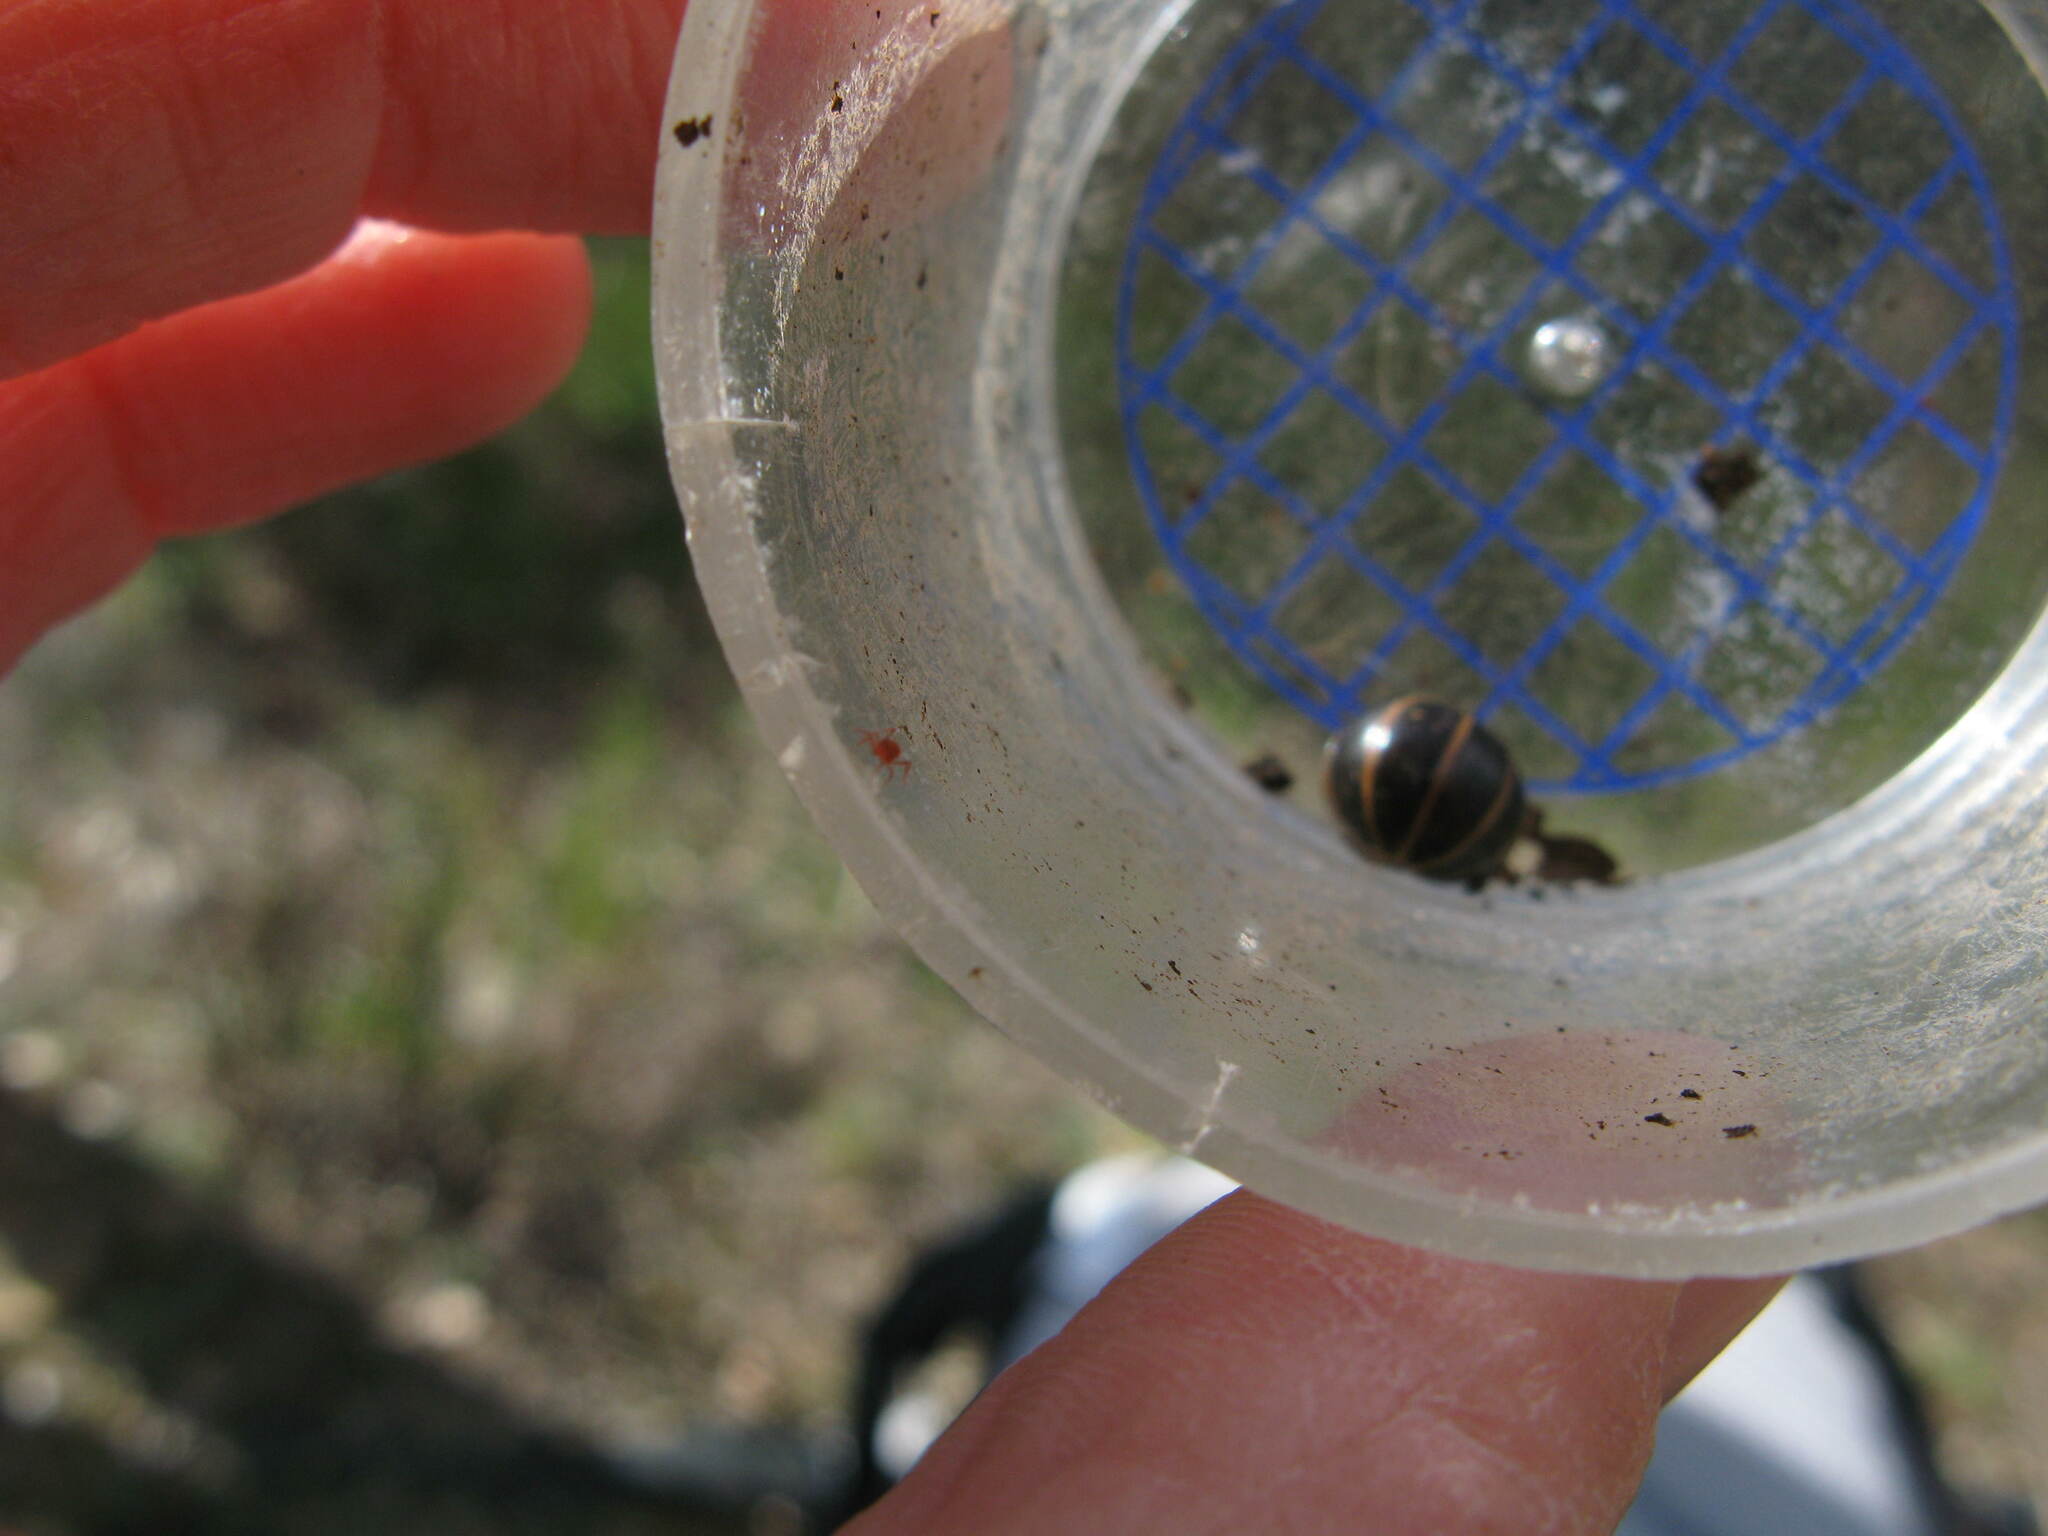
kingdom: Animalia
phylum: Arthropoda
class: Diplopoda
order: Glomerida
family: Glomeridae
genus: Glomeris
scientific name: Glomeris marginata
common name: Bordered pill millipede
